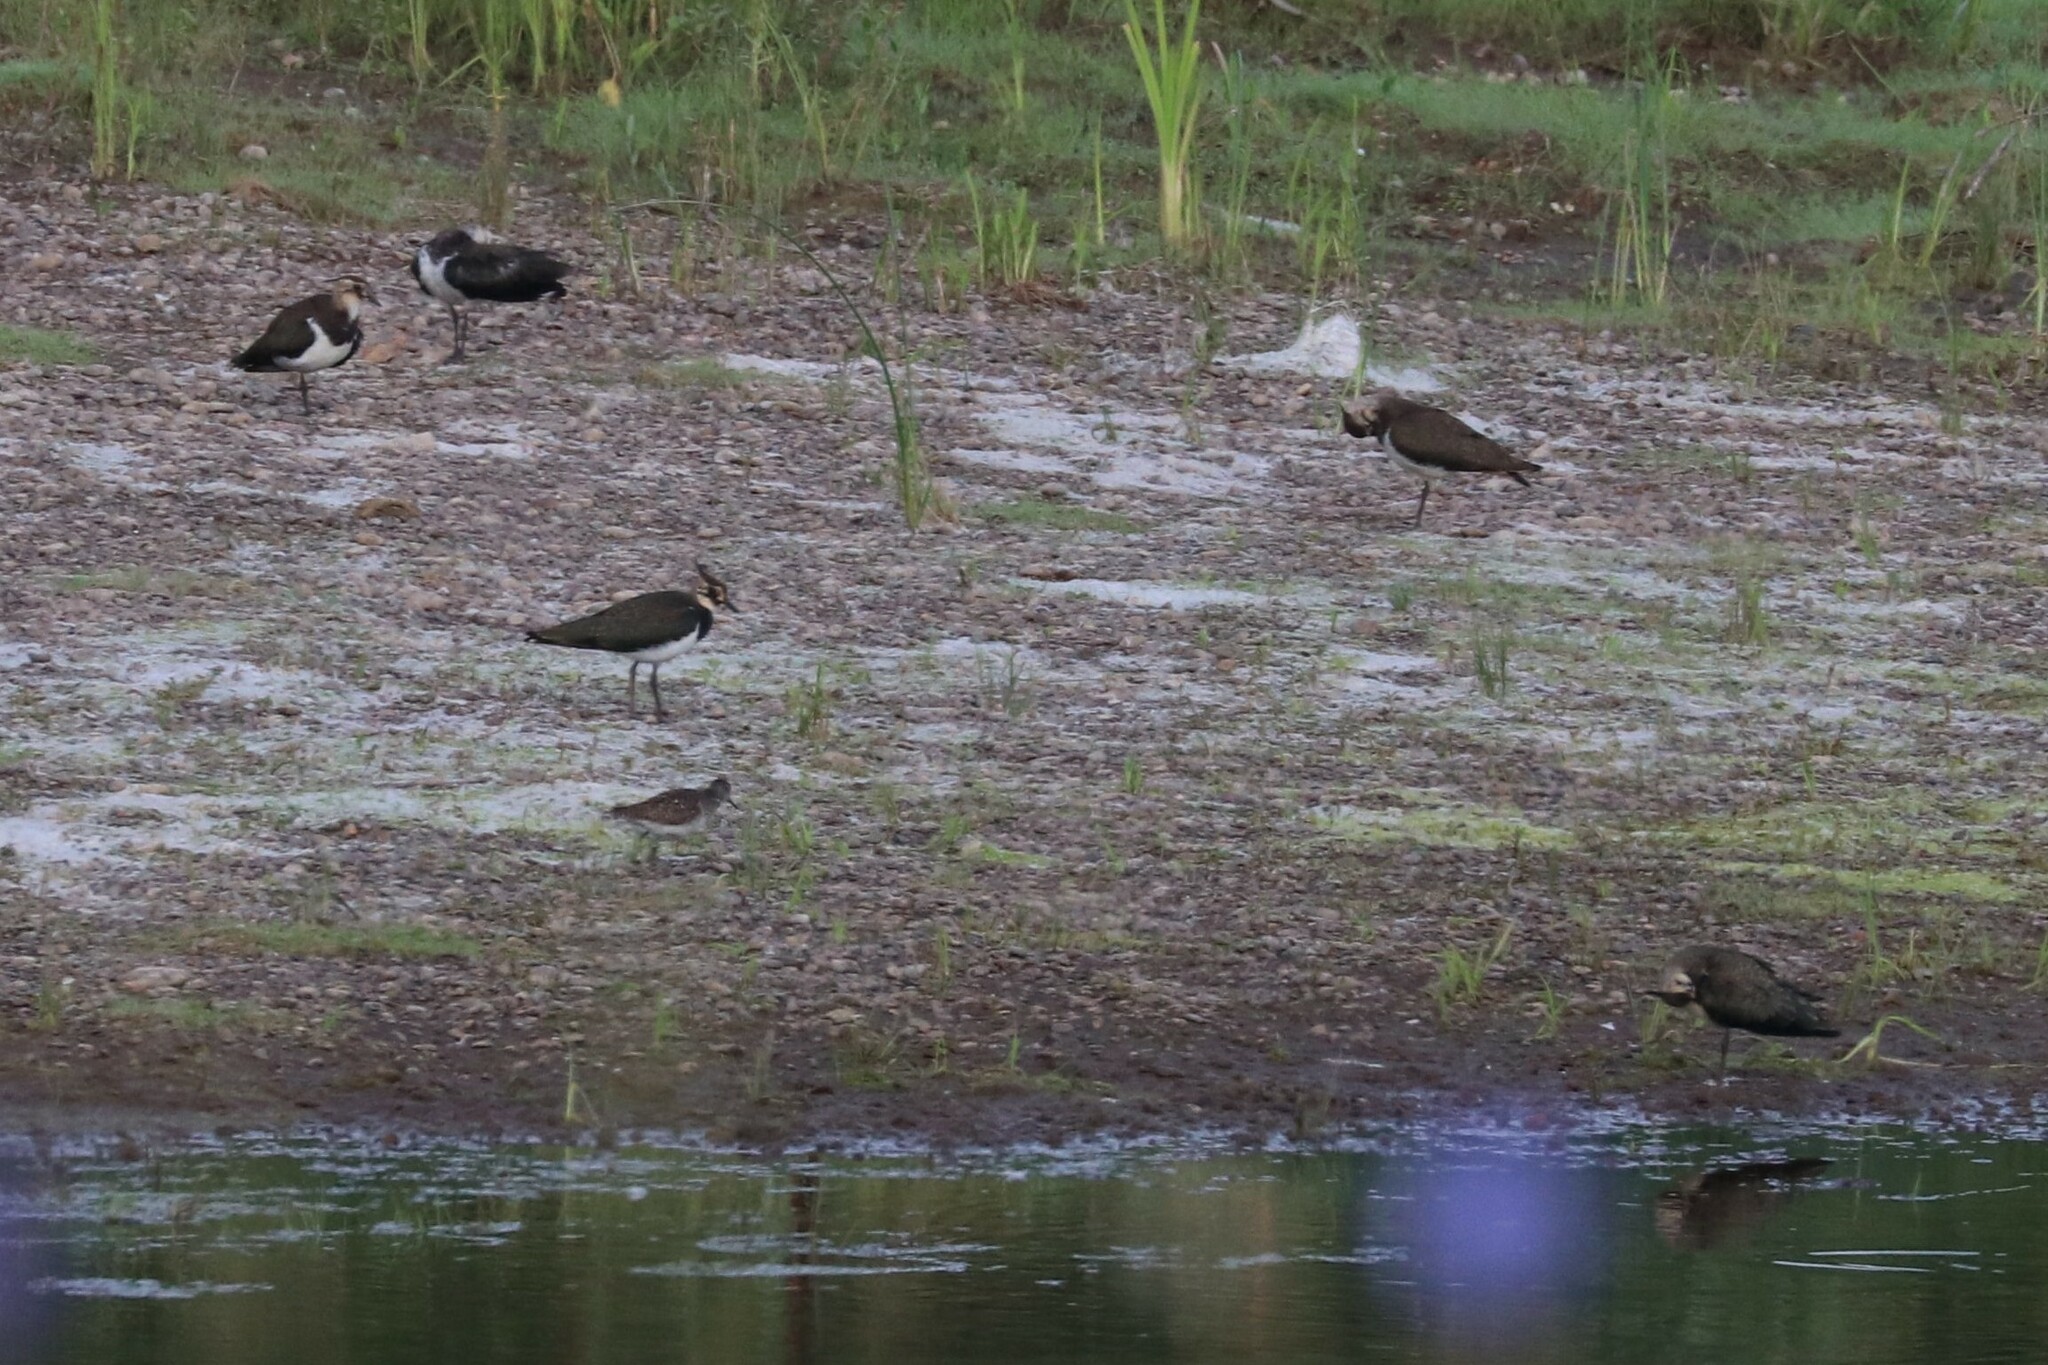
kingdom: Animalia
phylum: Chordata
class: Aves
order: Charadriiformes
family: Charadriidae
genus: Vanellus
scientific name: Vanellus vanellus
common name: Northern lapwing
